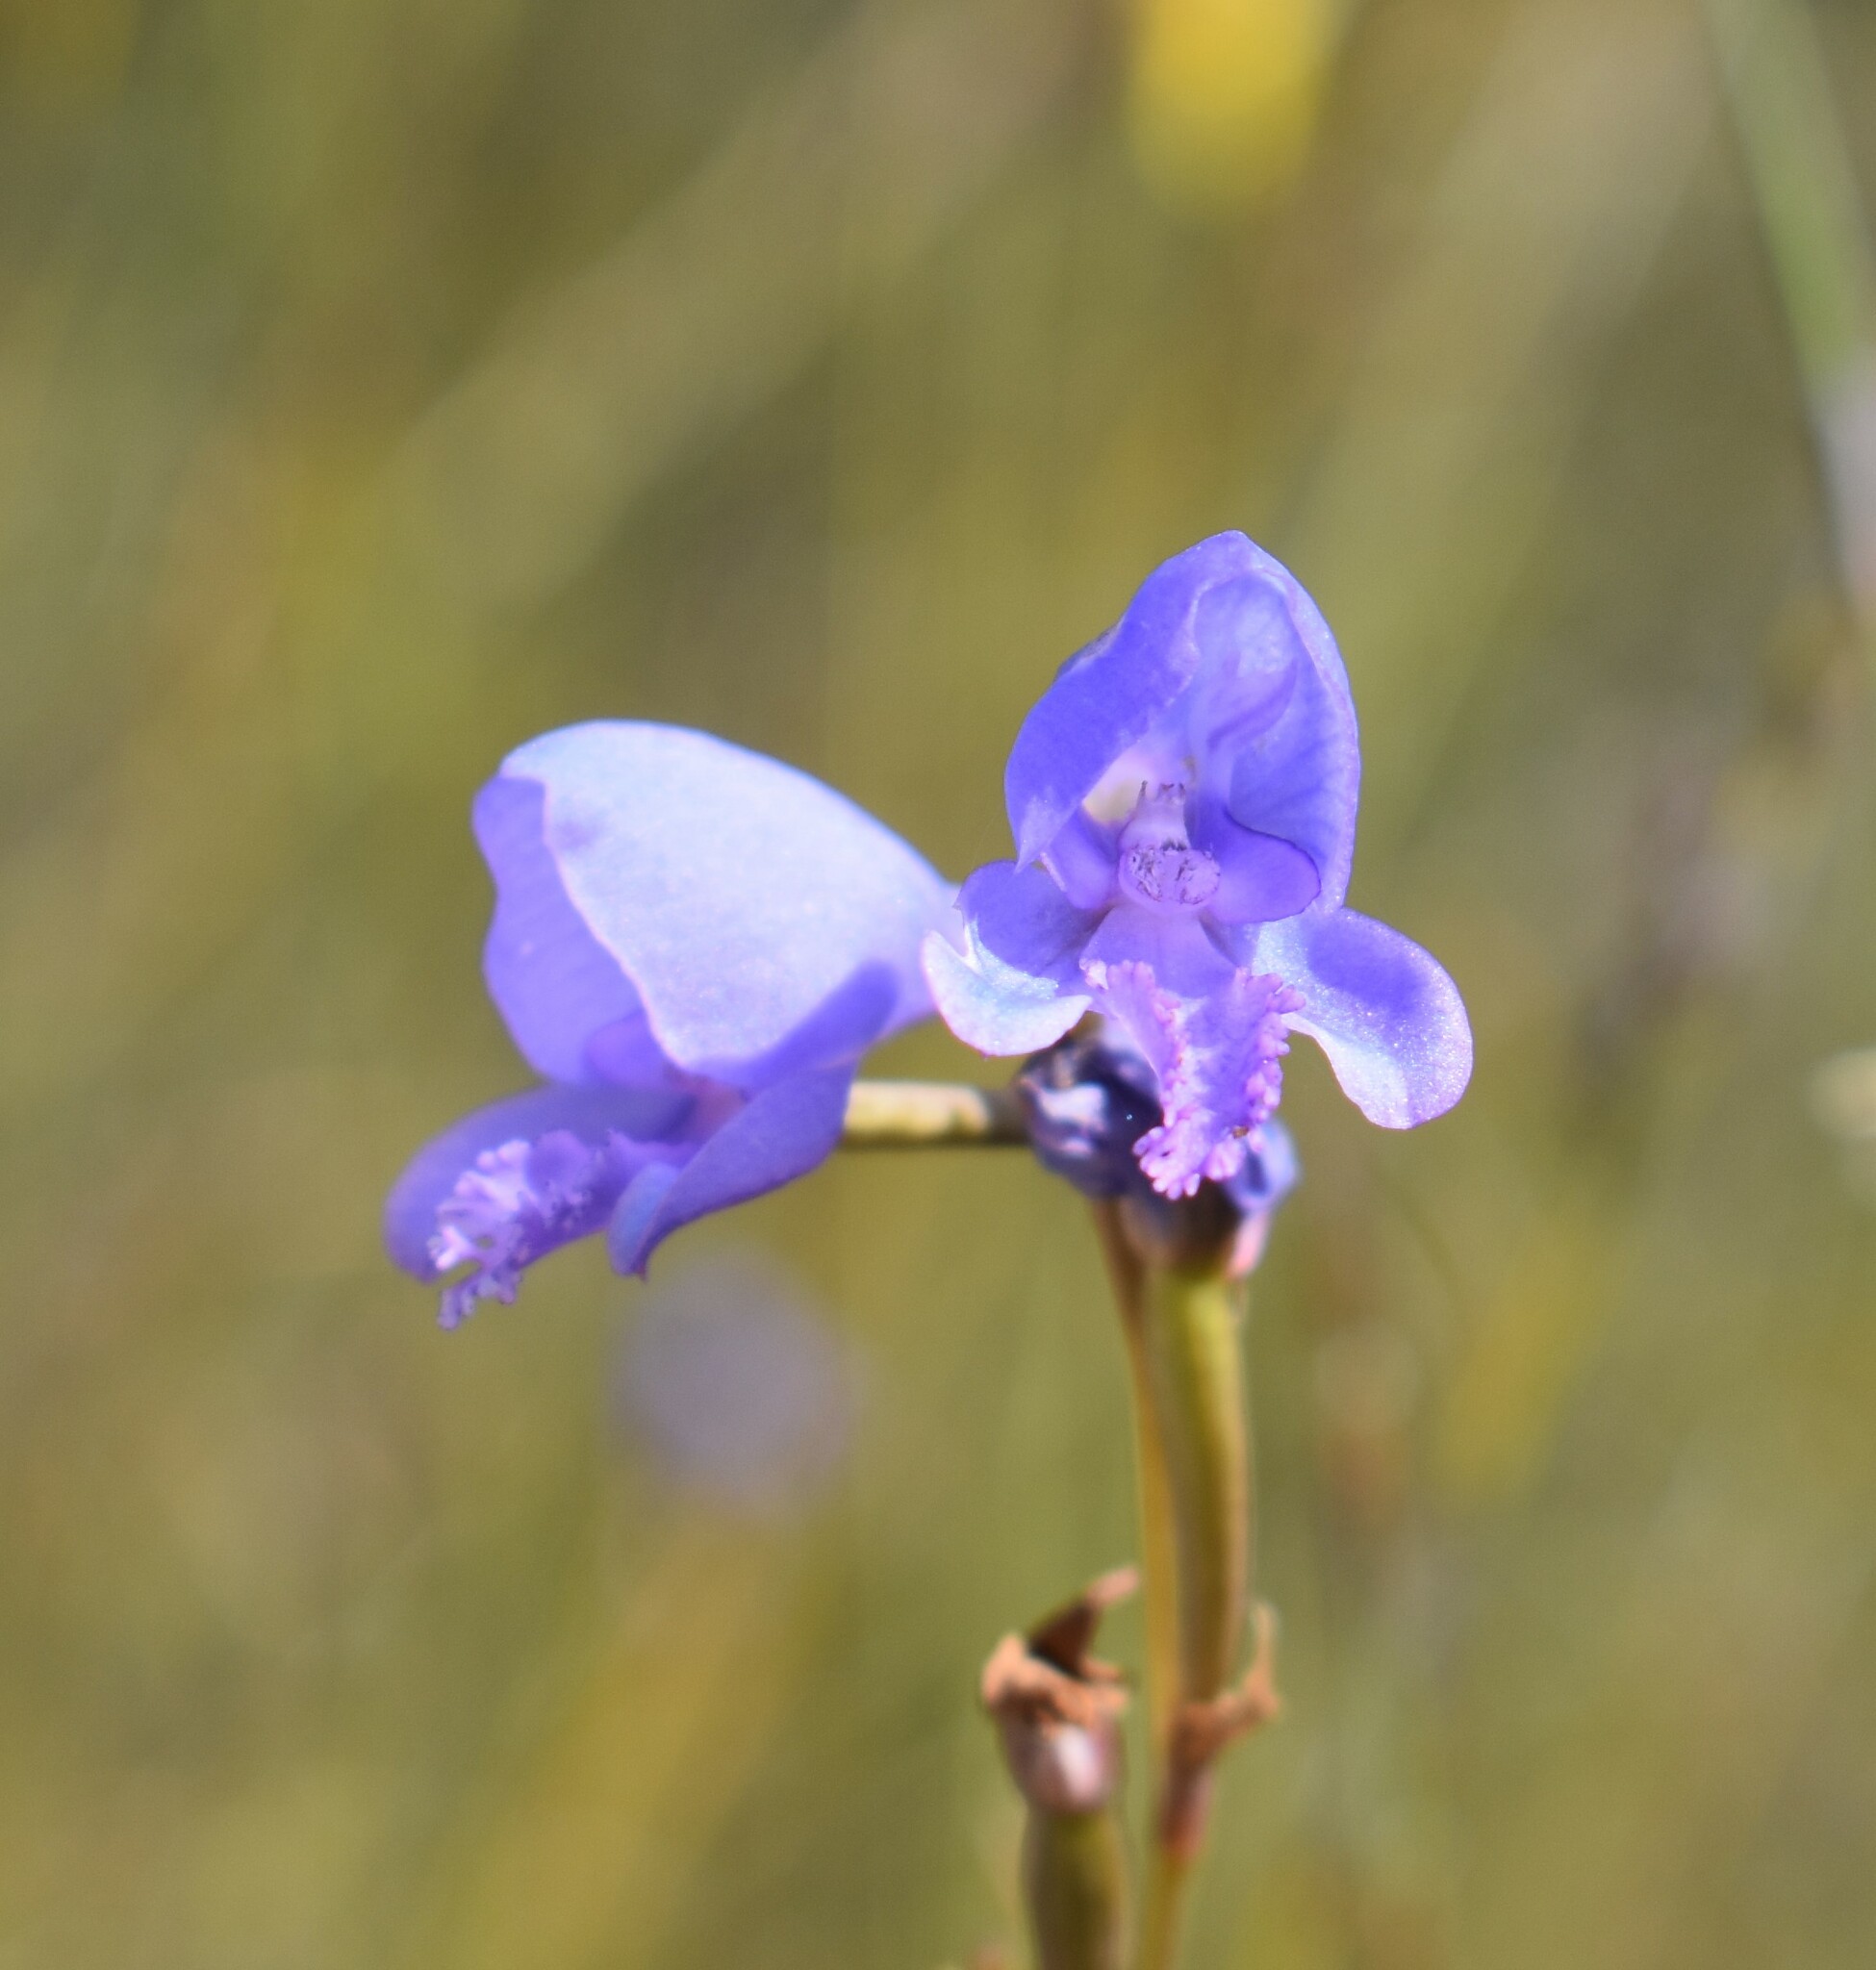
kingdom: Plantae
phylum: Tracheophyta
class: Liliopsida
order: Asparagales
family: Orchidaceae
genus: Disa
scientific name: Disa hians
